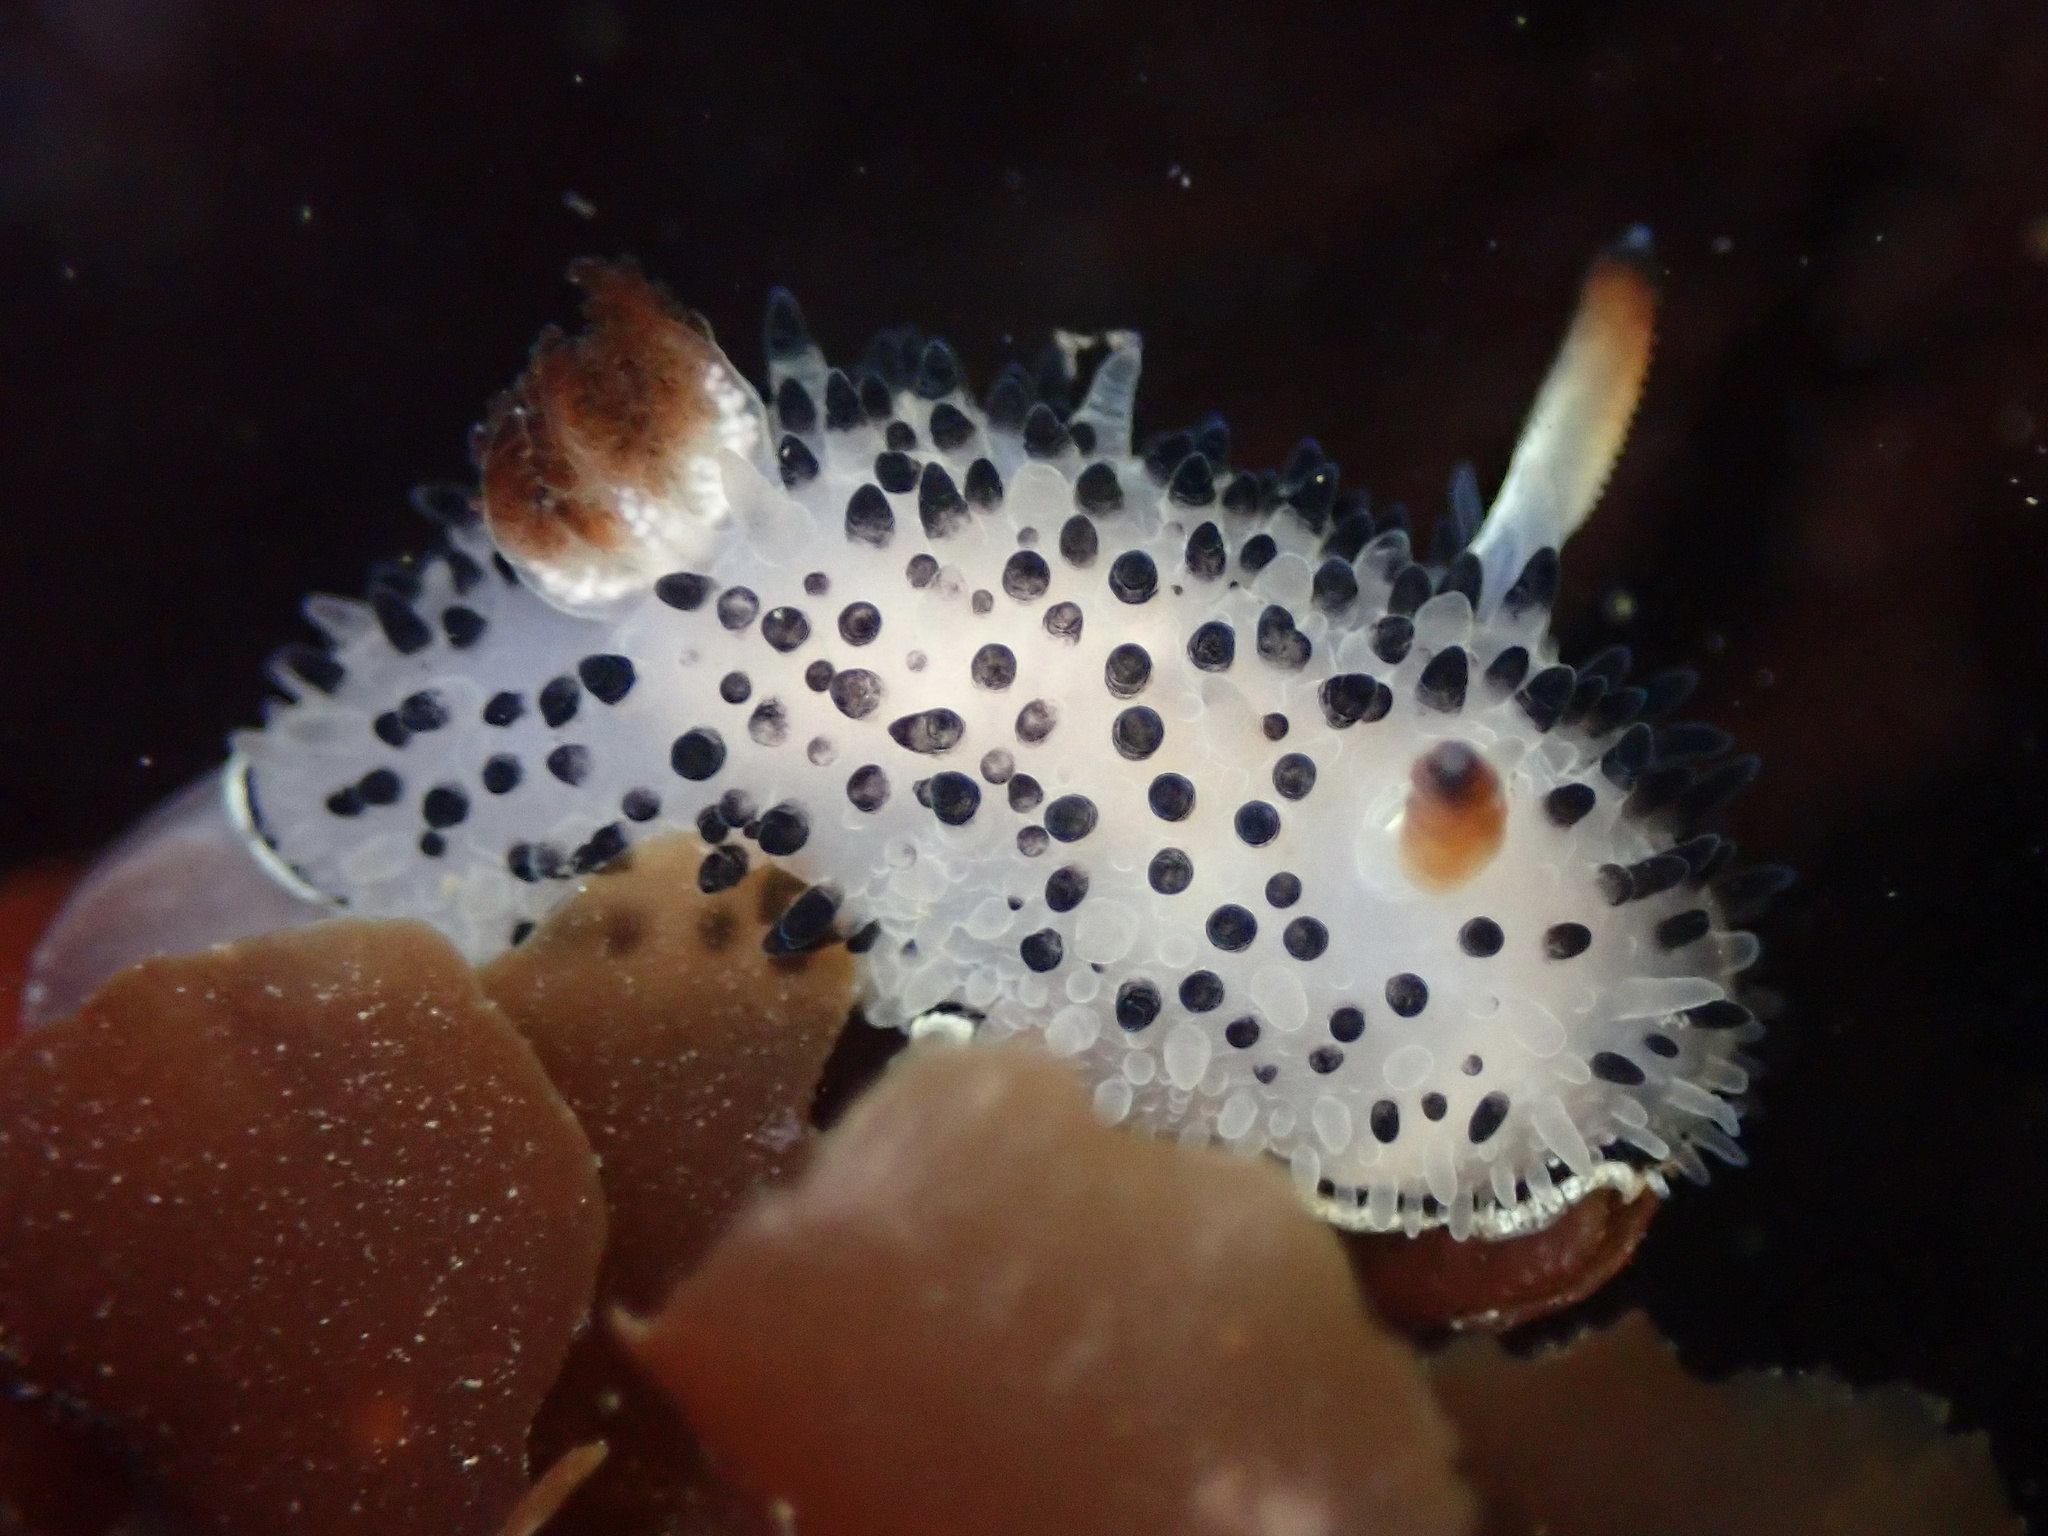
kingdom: Animalia
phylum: Mollusca
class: Gastropoda
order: Nudibranchia
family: Onchidorididae
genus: Acanthodoris
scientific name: Acanthodoris rhodoceras
